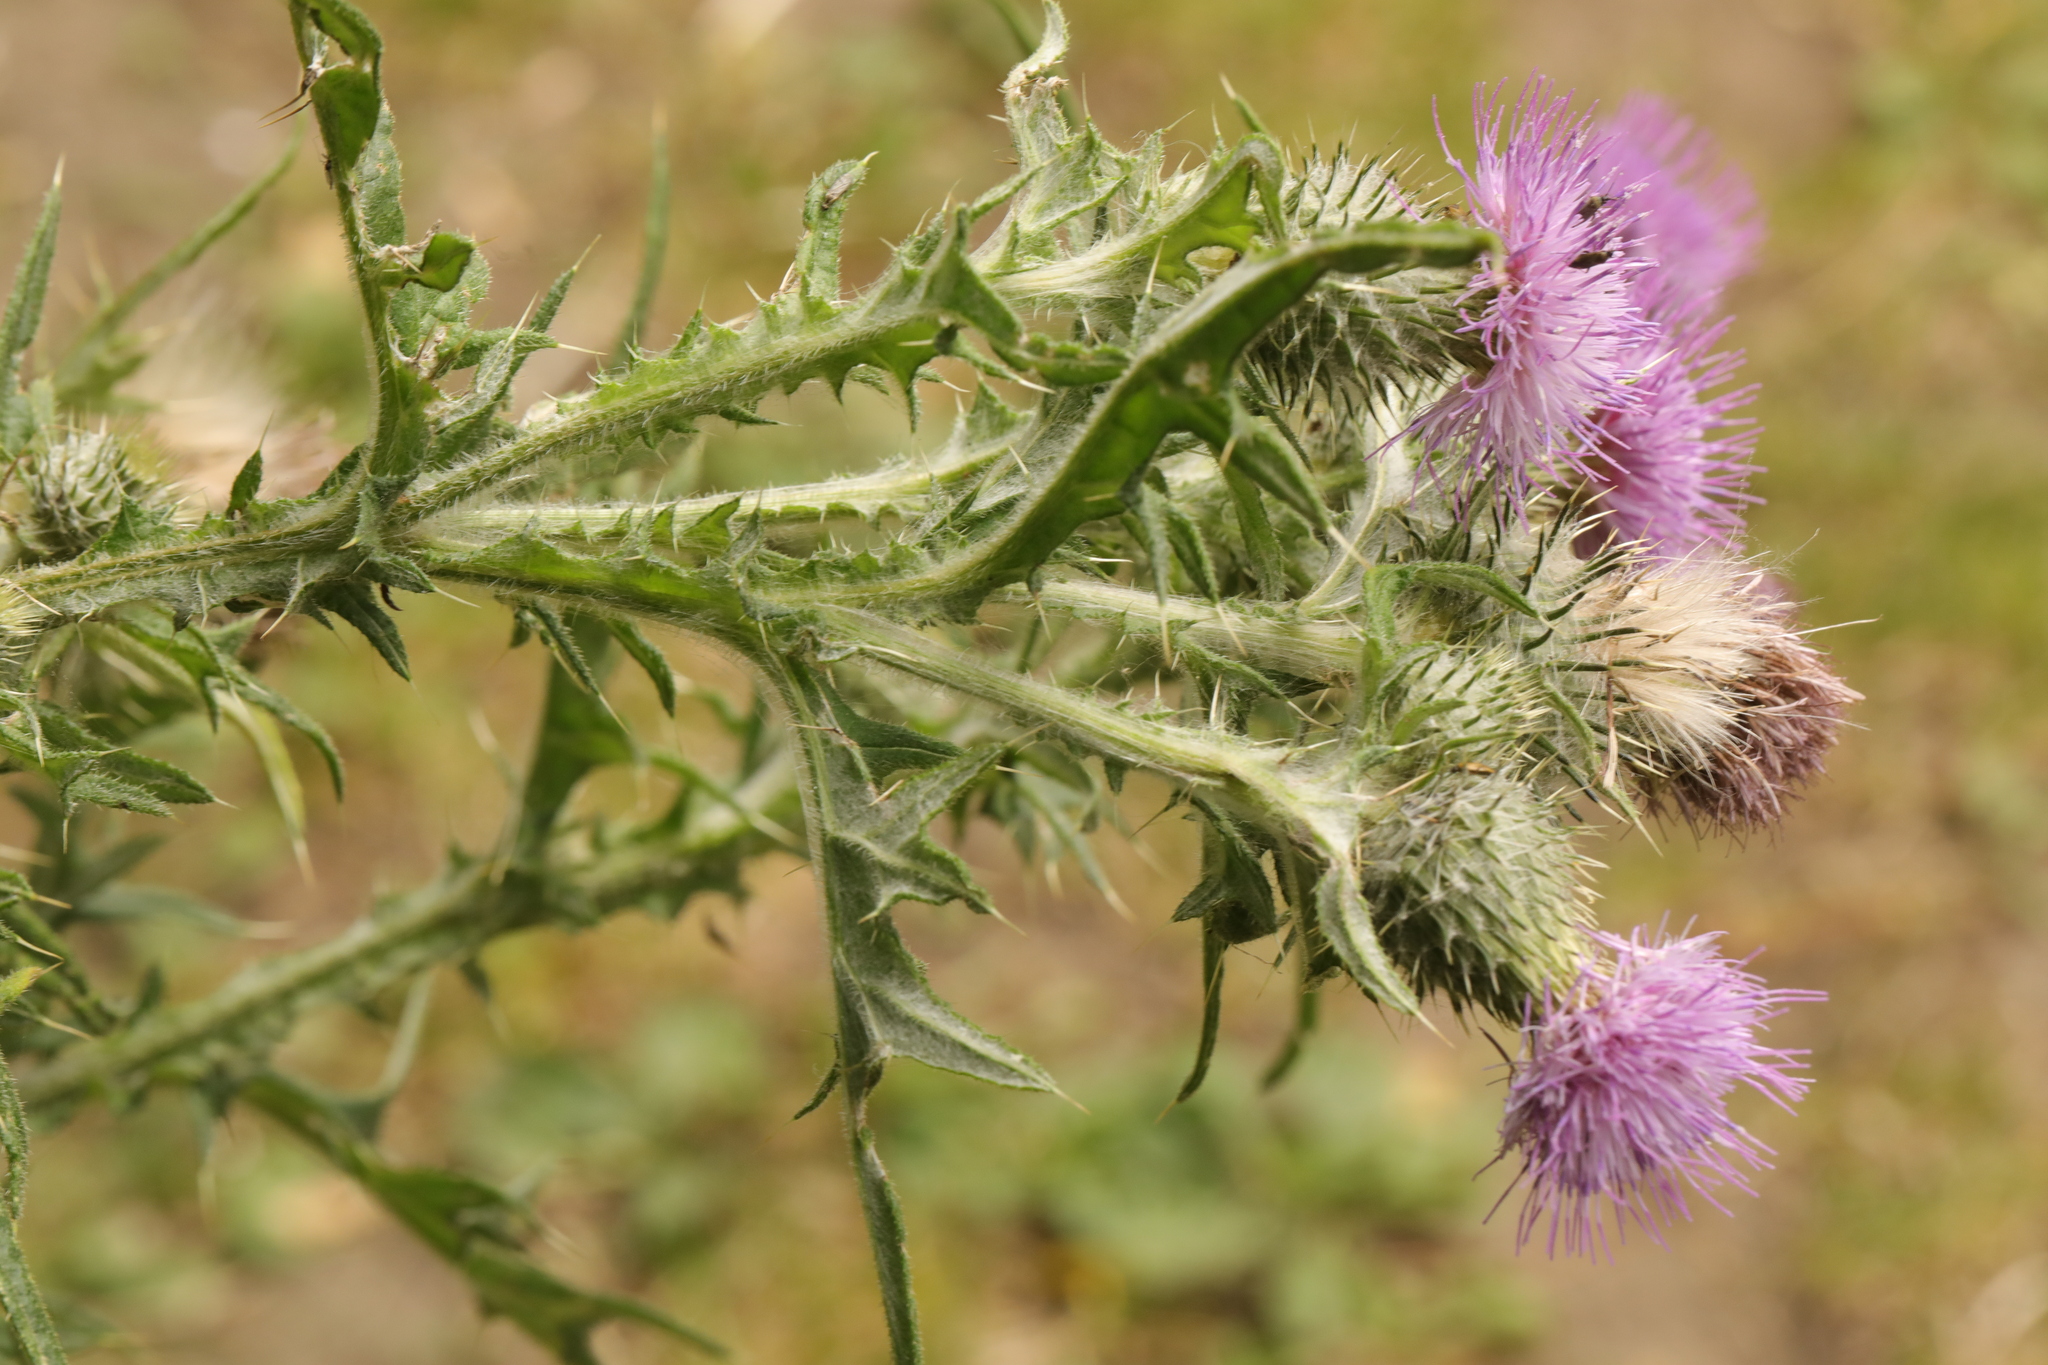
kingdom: Plantae
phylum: Tracheophyta
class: Magnoliopsida
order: Asterales
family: Asteraceae
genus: Cirsium
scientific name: Cirsium vulgare
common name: Bull thistle
